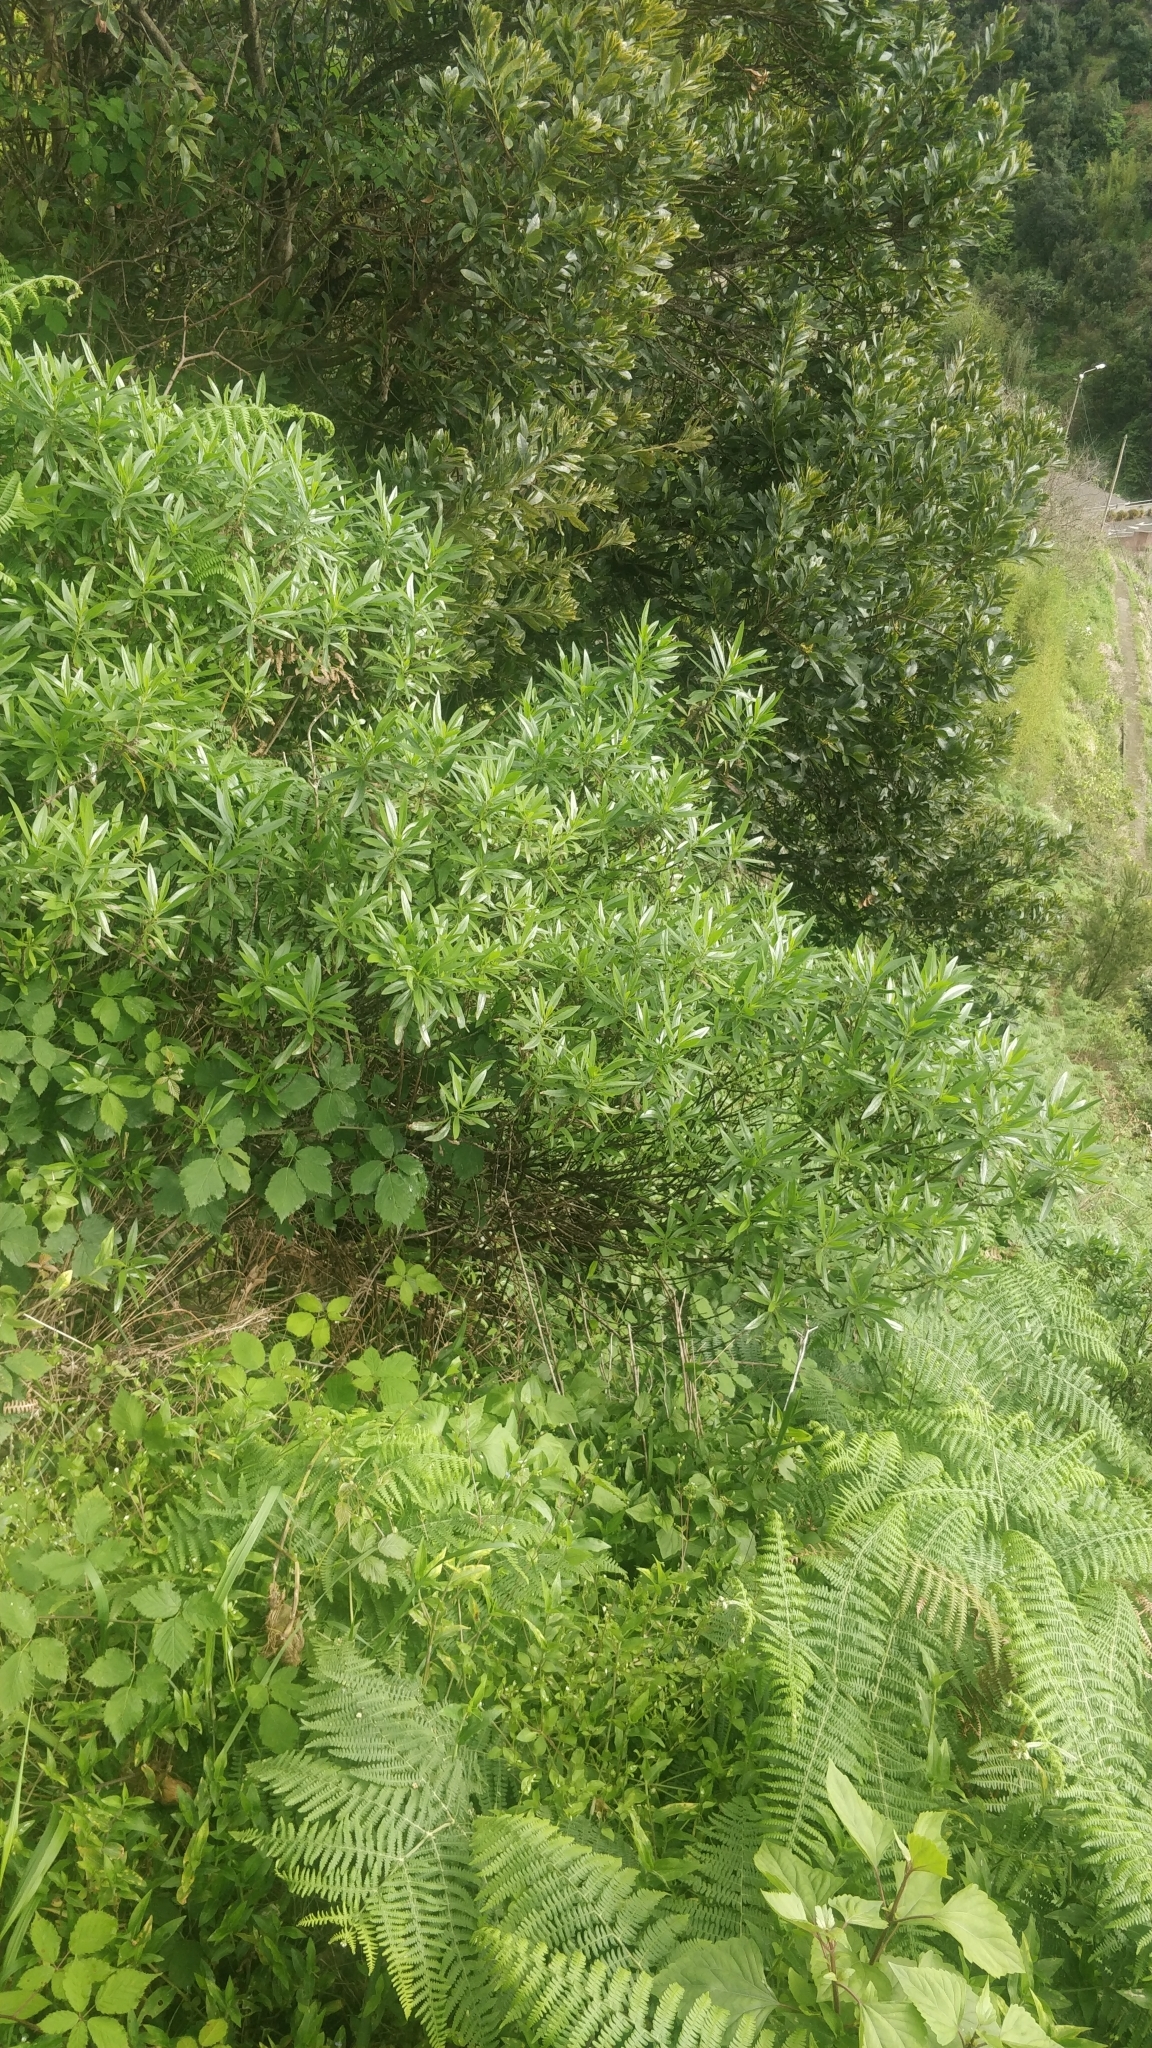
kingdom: Plantae
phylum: Tracheophyta
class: Magnoliopsida
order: Lamiales
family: Plantaginaceae
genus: Globularia
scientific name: Globularia salicina
